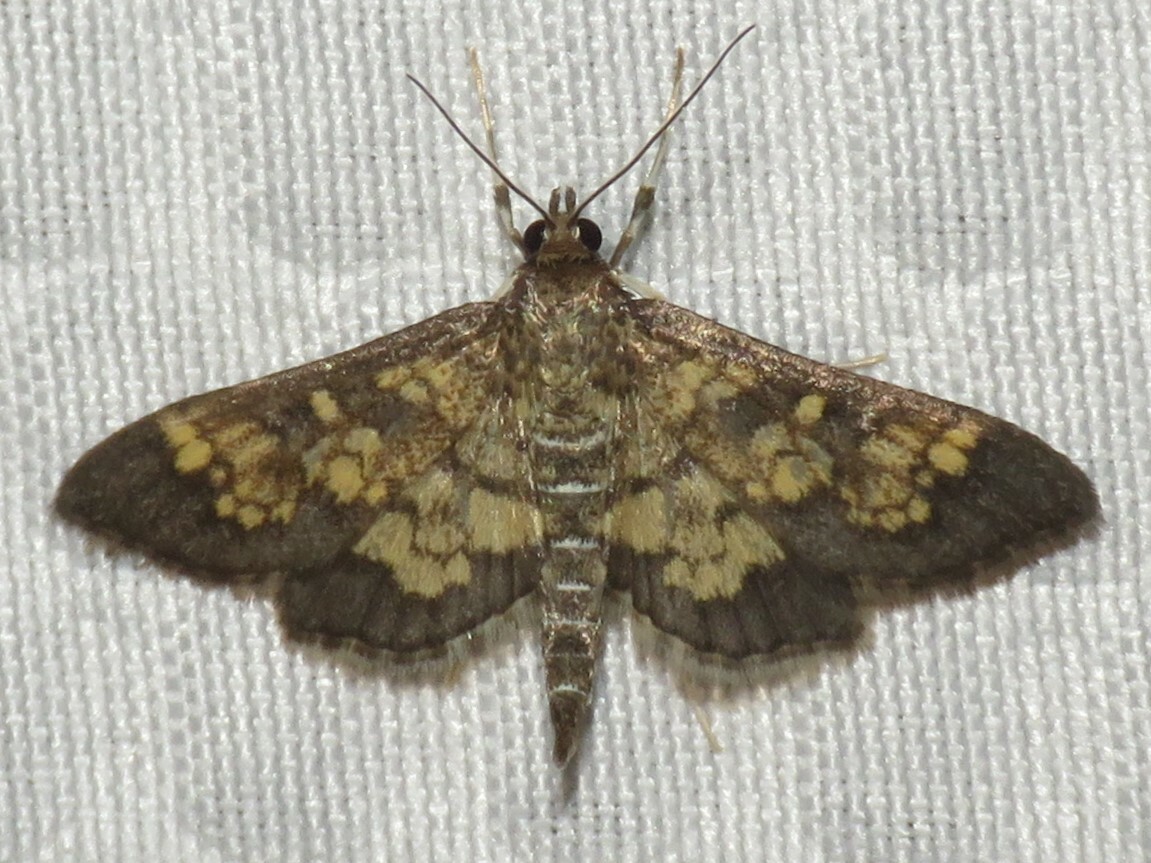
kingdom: Animalia
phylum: Arthropoda
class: Insecta
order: Lepidoptera
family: Crambidae
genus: Epipagis
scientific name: Epipagis adipaloides
